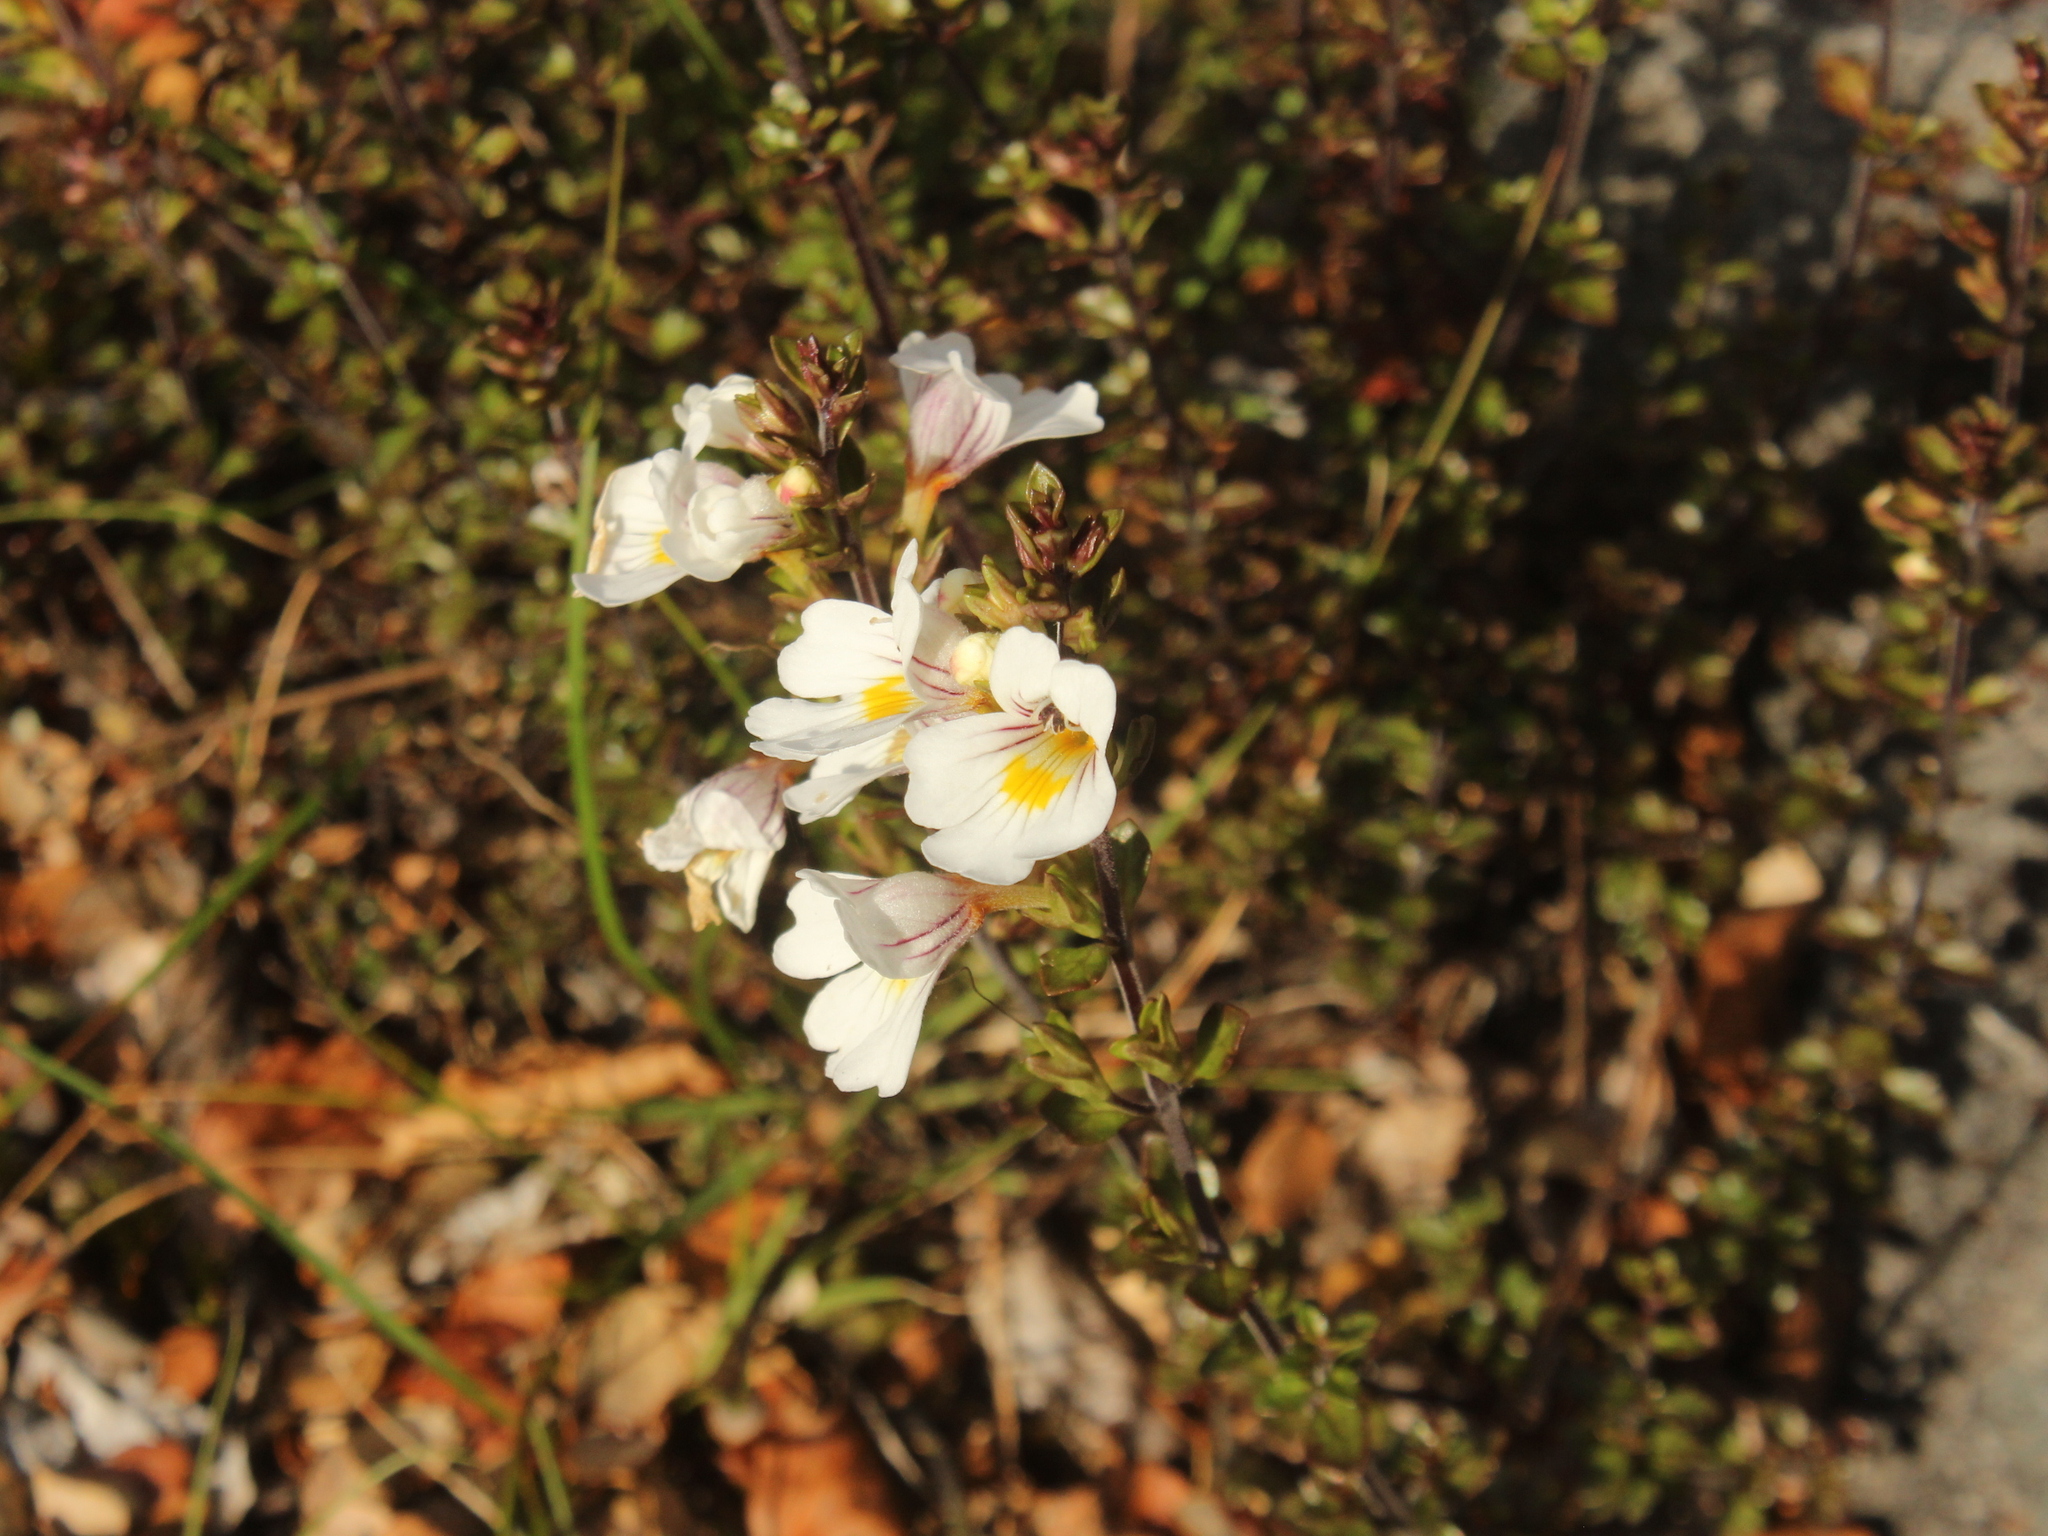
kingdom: Plantae
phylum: Tracheophyta
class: Magnoliopsida
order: Lamiales
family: Orobanchaceae
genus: Euphrasia
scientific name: Euphrasia cuneata
